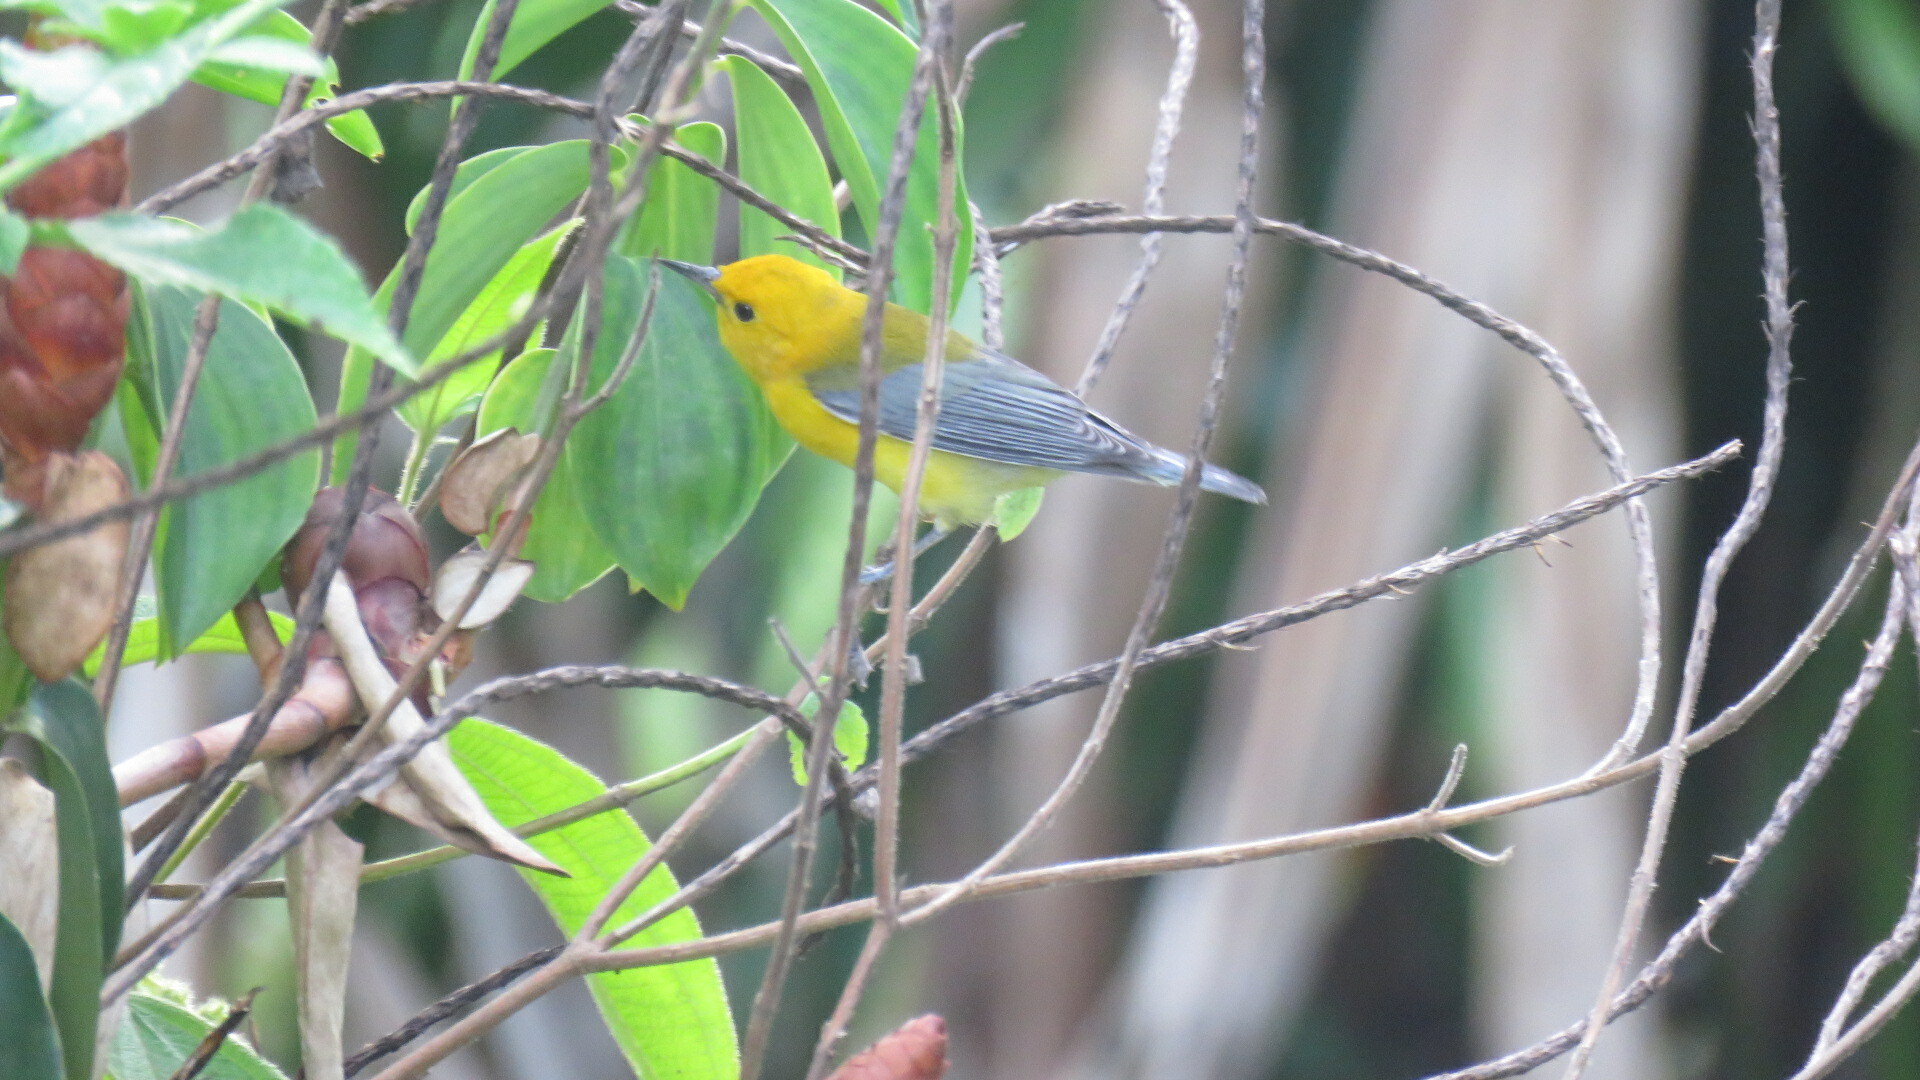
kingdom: Animalia
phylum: Chordata
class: Aves
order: Passeriformes
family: Parulidae
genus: Protonotaria
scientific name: Protonotaria citrea
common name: Prothonotary warbler
